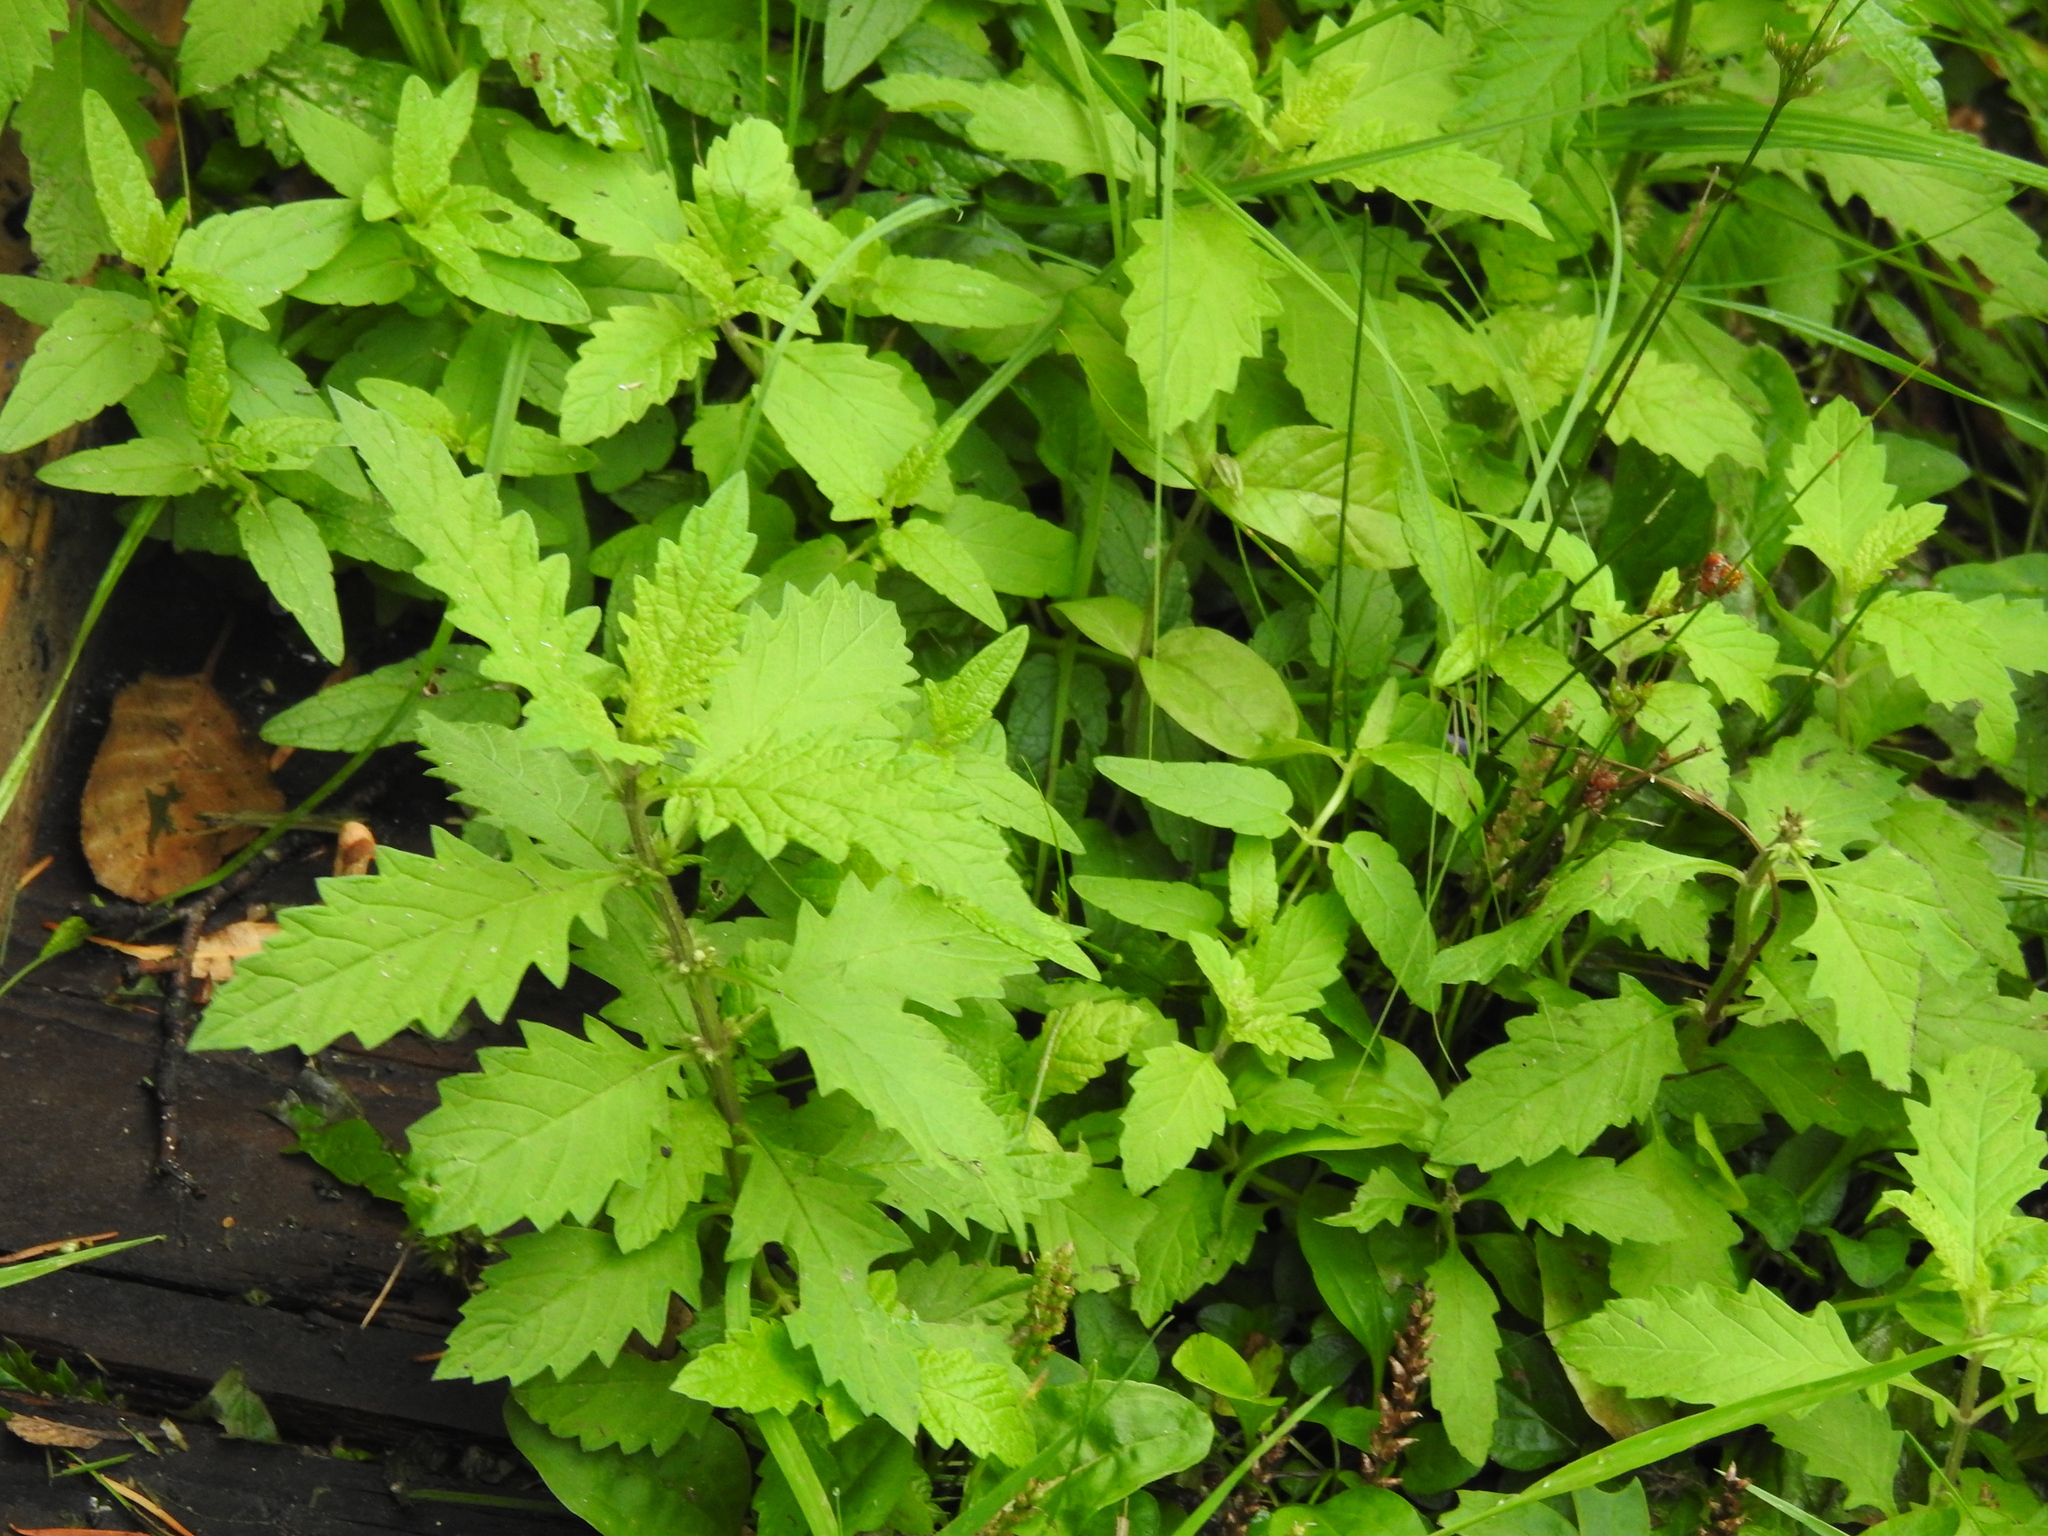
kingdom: Plantae
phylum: Tracheophyta
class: Magnoliopsida
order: Lamiales
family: Lamiaceae
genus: Lycopus
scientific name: Lycopus europaeus
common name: European bugleweed
